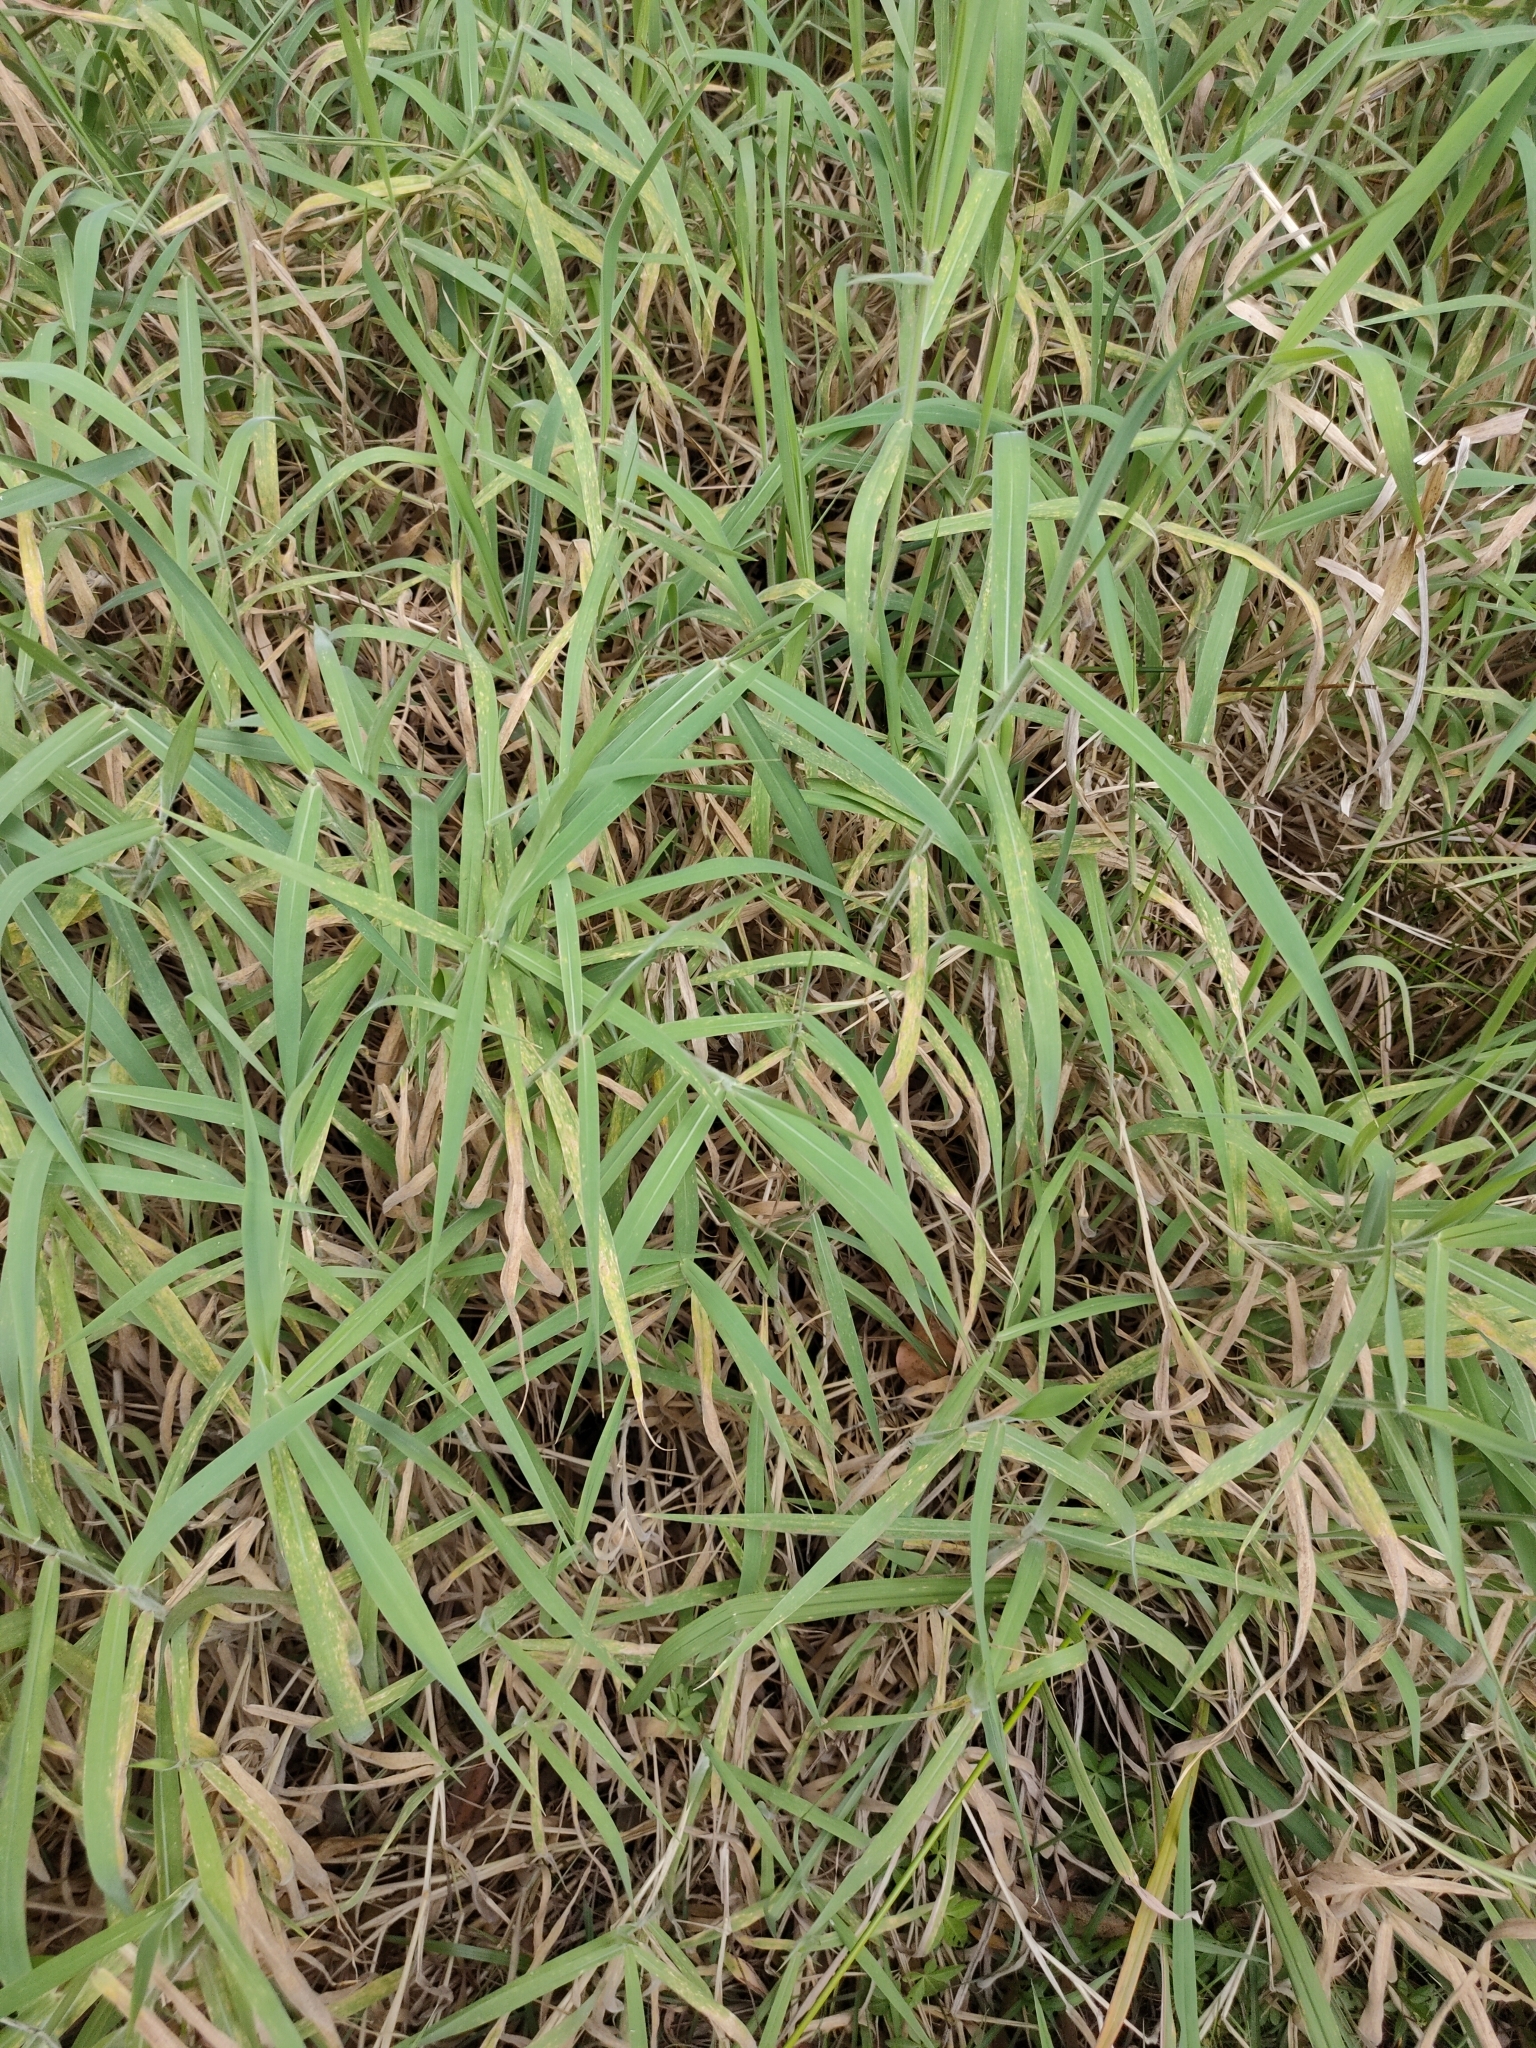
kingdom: Plantae
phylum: Tracheophyta
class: Liliopsida
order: Poales
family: Poaceae
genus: Urochloa
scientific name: Urochloa mutica
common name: Para grass
